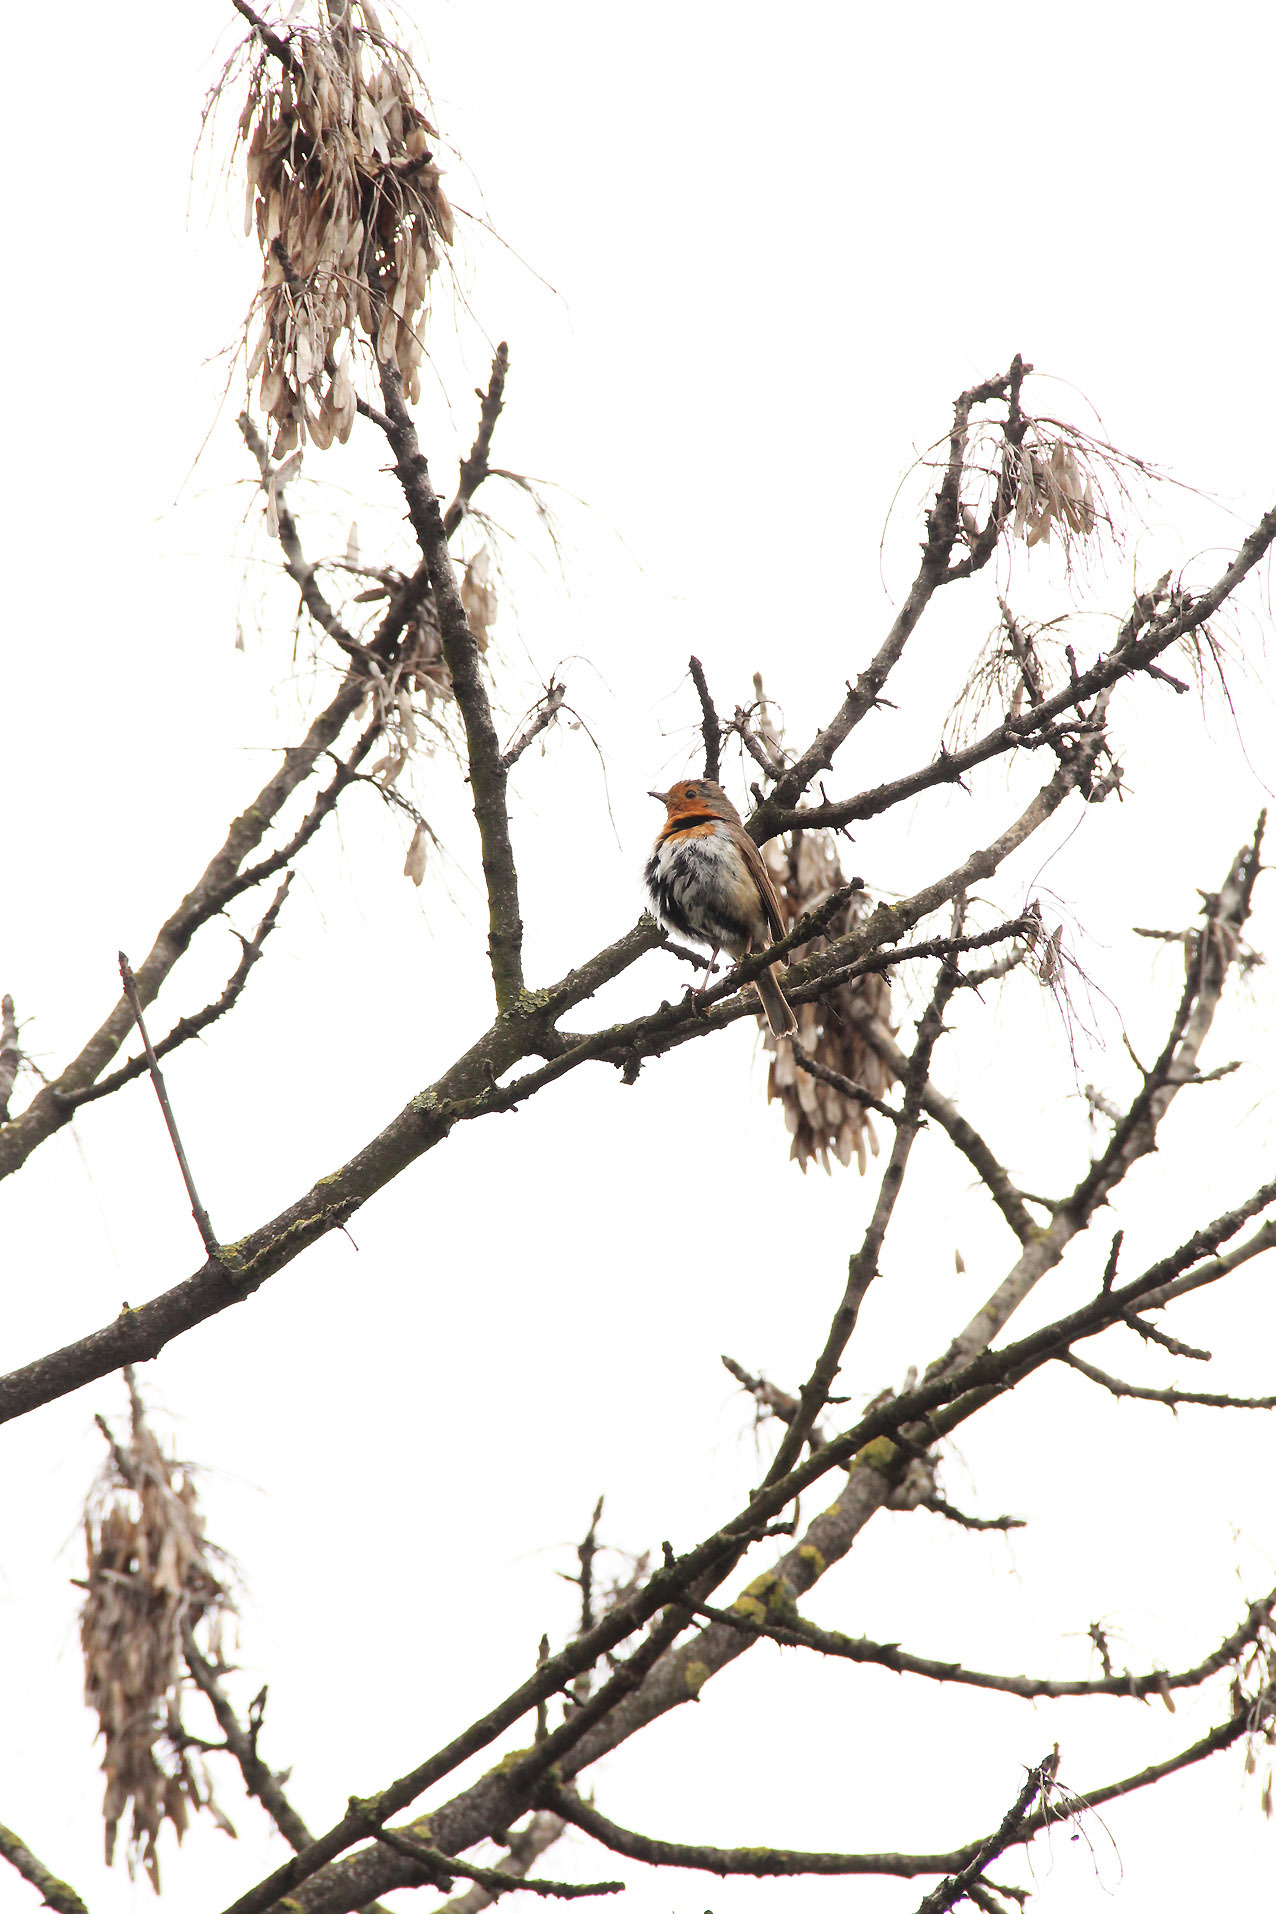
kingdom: Animalia
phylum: Chordata
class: Aves
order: Passeriformes
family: Muscicapidae
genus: Erithacus
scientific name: Erithacus rubecula
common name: European robin
